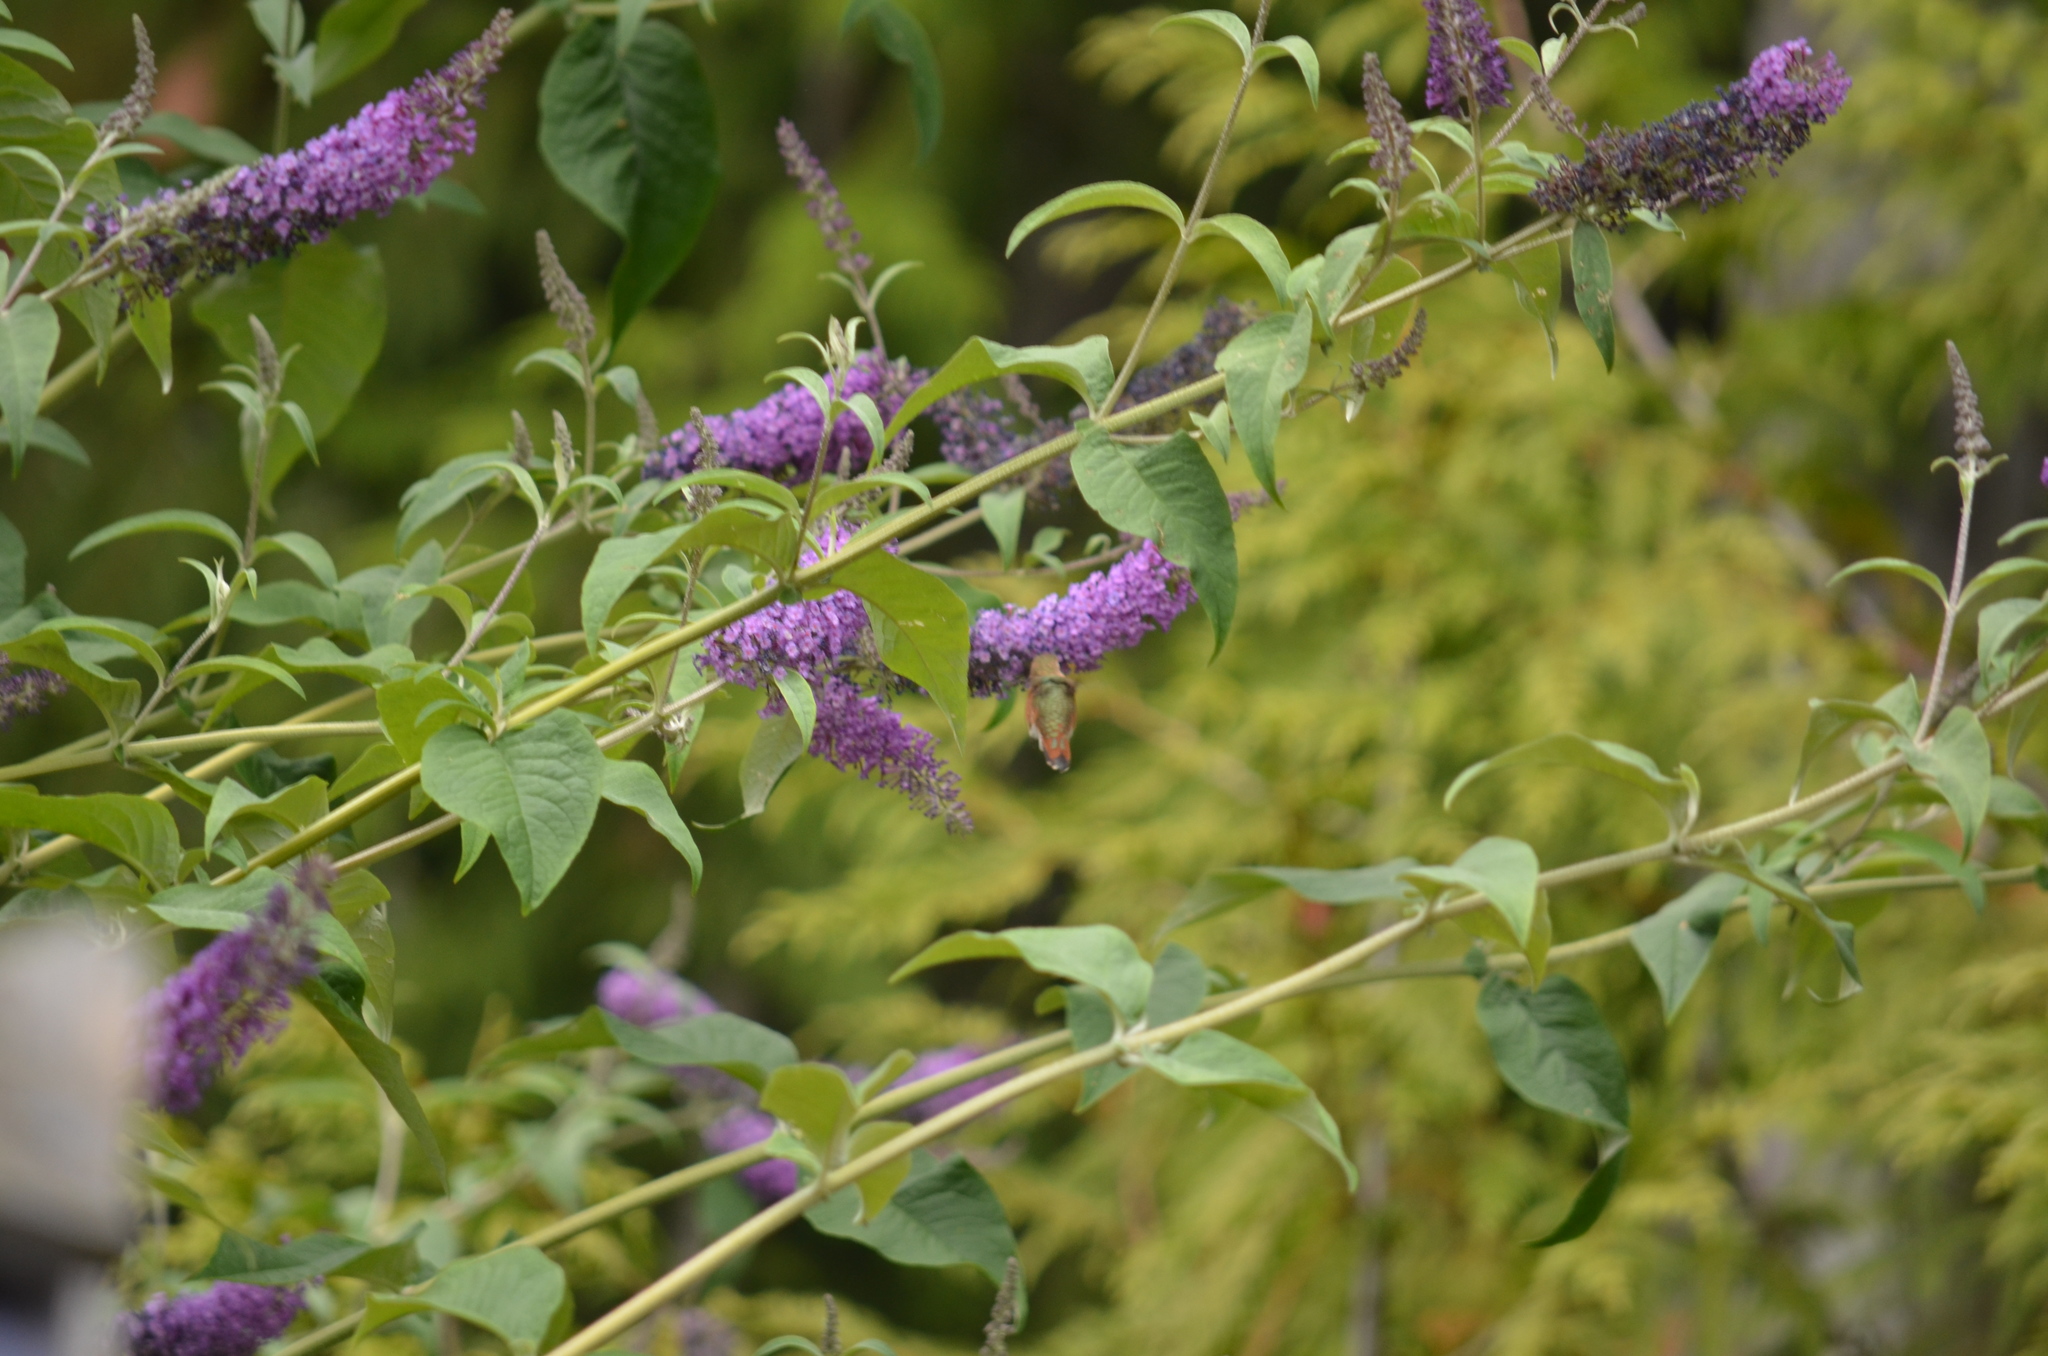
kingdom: Animalia
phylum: Chordata
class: Aves
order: Apodiformes
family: Trochilidae
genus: Selasphorus
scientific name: Selasphorus rufus
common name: Rufous hummingbird
